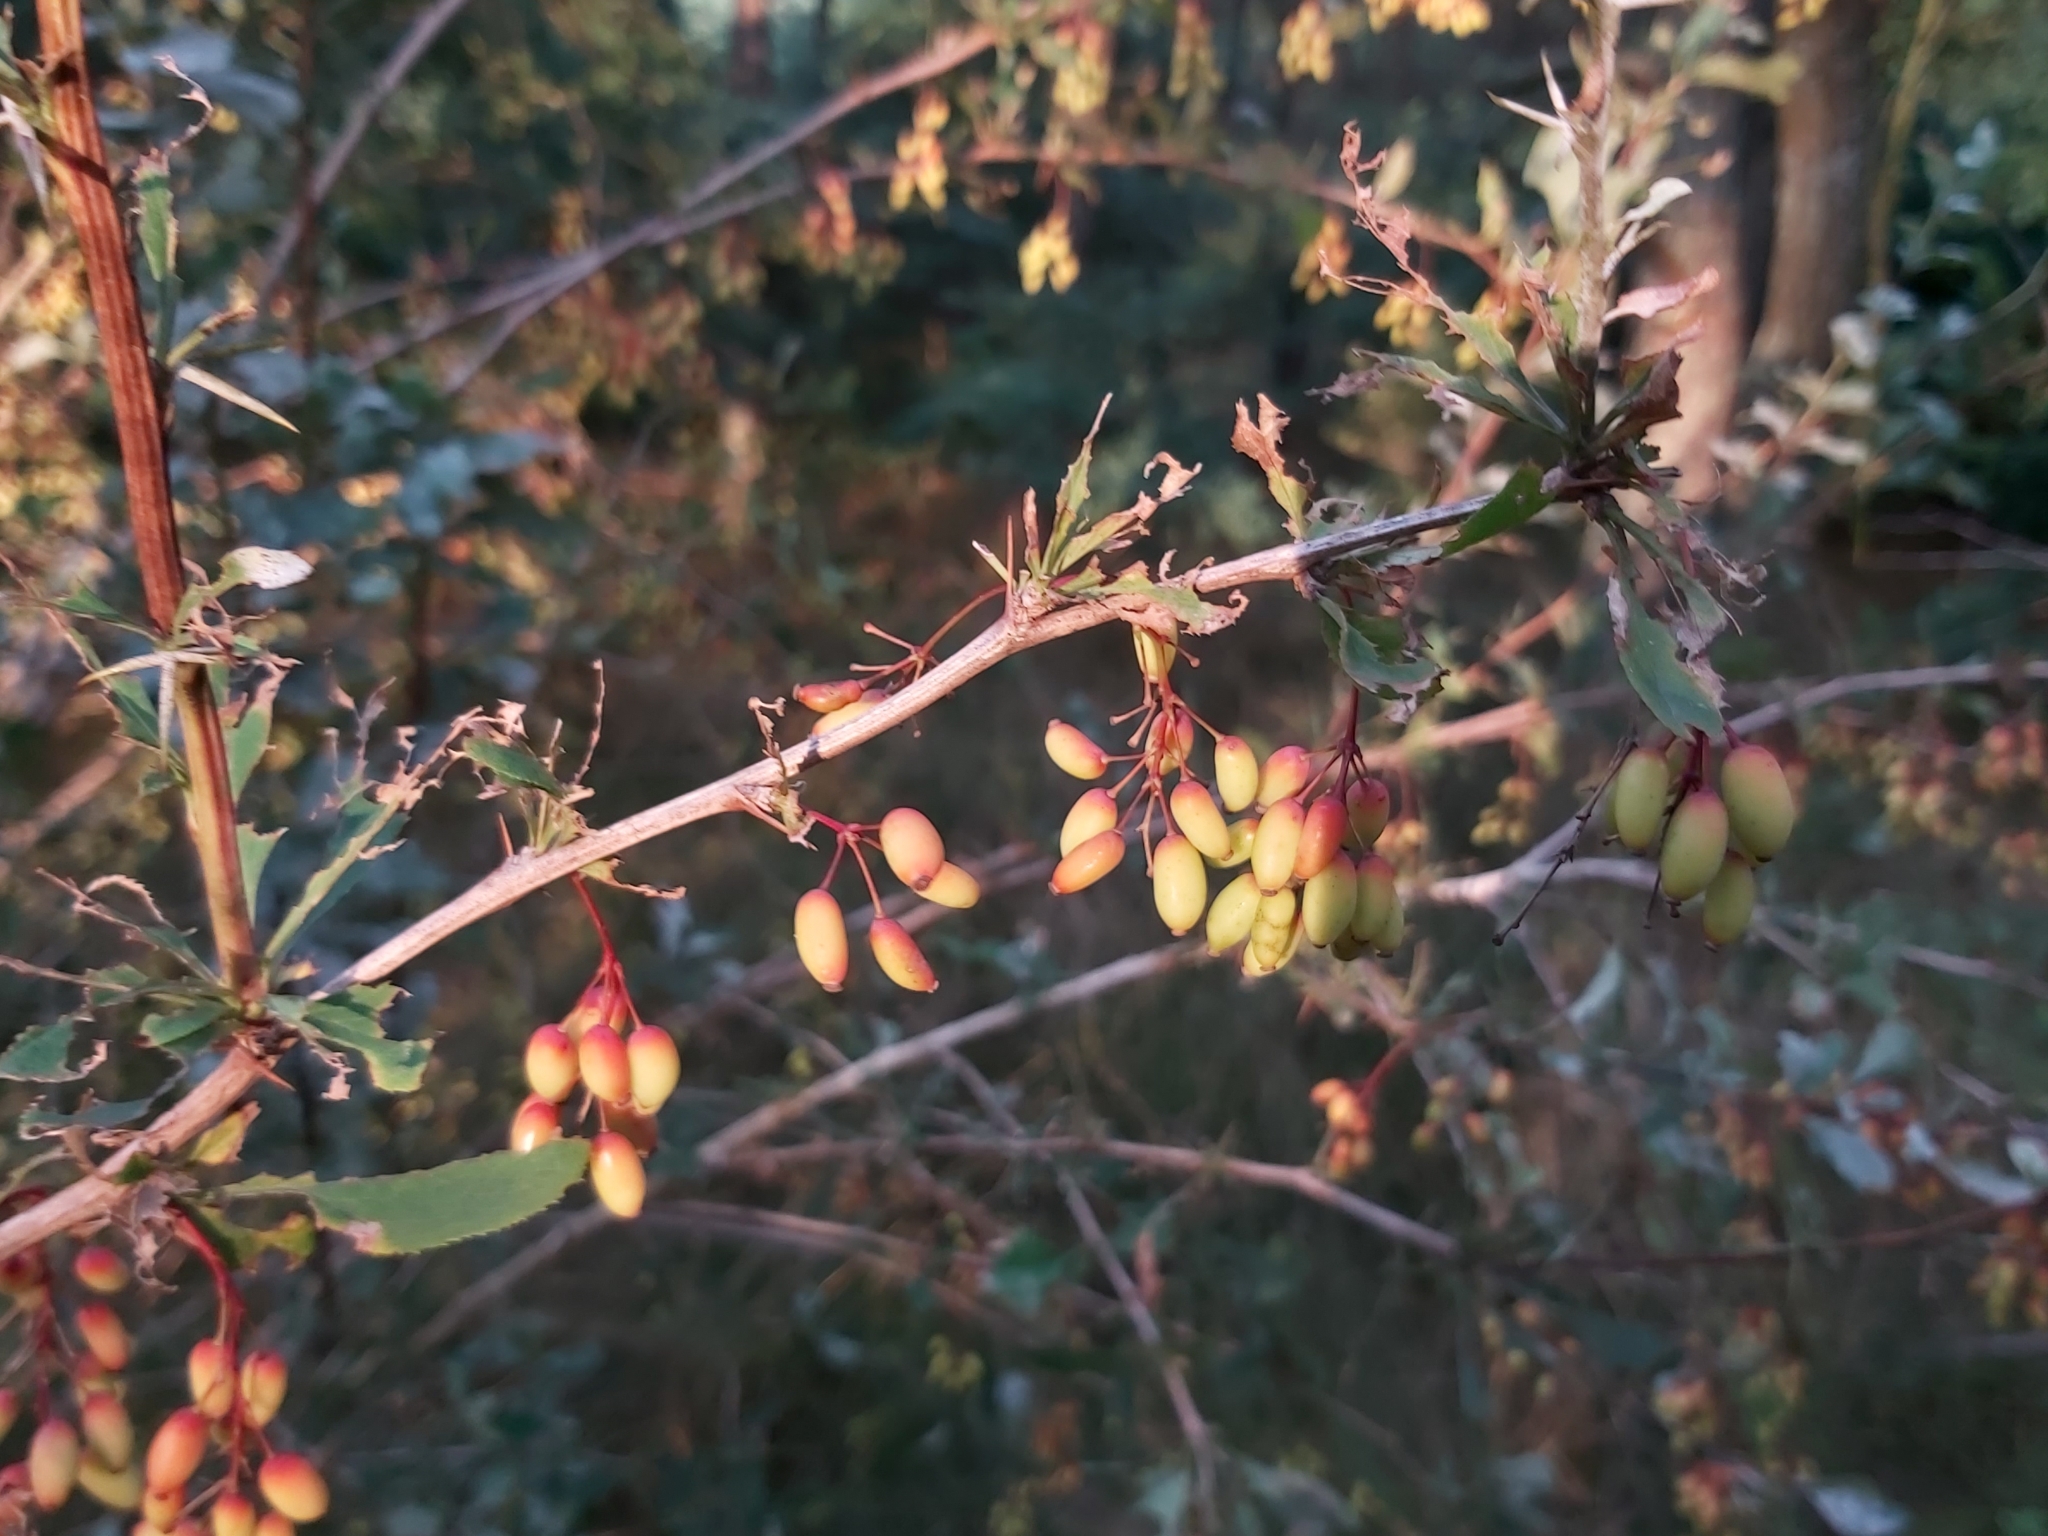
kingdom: Plantae
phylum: Tracheophyta
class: Magnoliopsida
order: Ranunculales
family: Berberidaceae
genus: Berberis
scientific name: Berberis vulgaris
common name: Barberry
